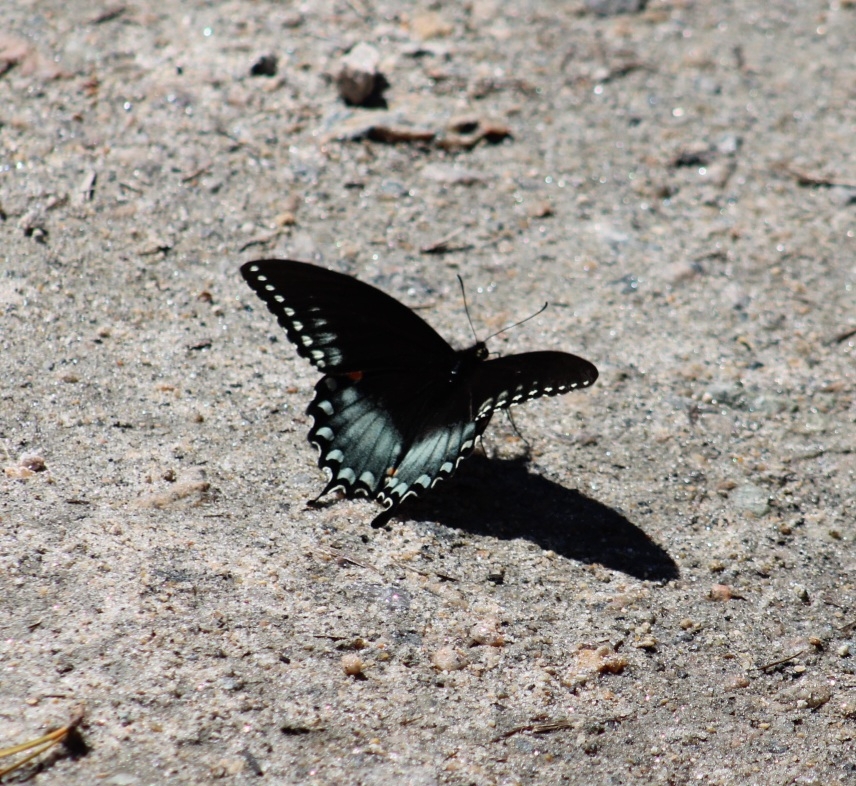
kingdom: Animalia
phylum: Arthropoda
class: Insecta
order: Lepidoptera
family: Papilionidae
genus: Papilio
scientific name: Papilio troilus
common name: Spicebush swallowtail
